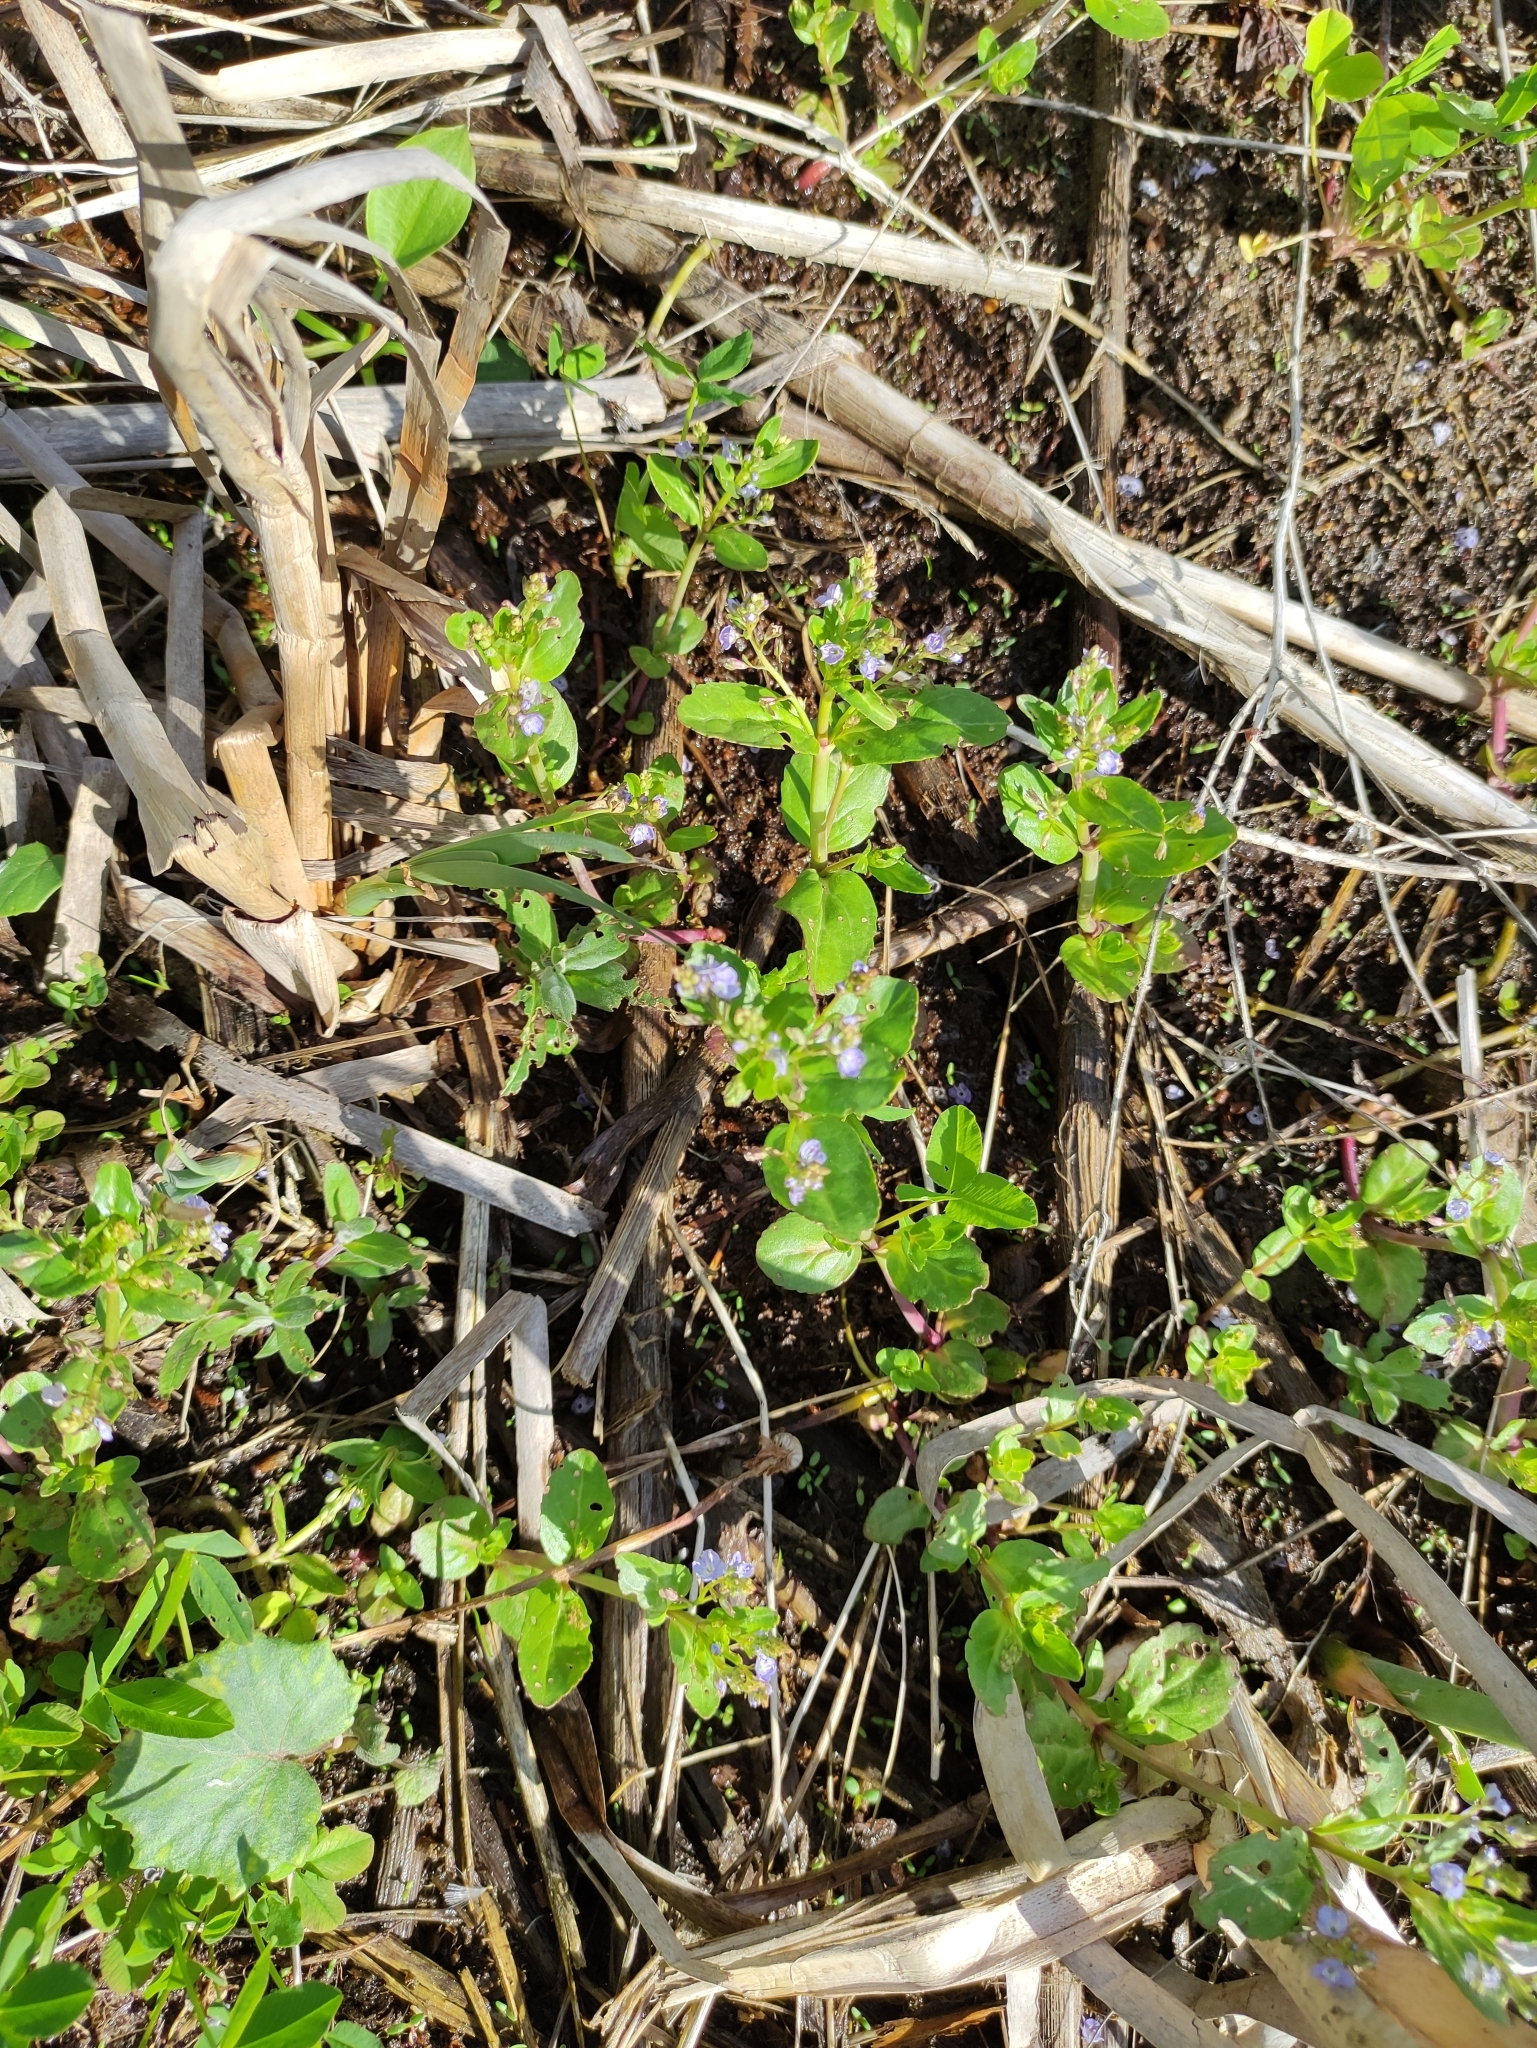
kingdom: Plantae
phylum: Tracheophyta
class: Magnoliopsida
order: Lamiales
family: Plantaginaceae
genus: Veronica
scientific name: Veronica beccabunga
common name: Brooklime
